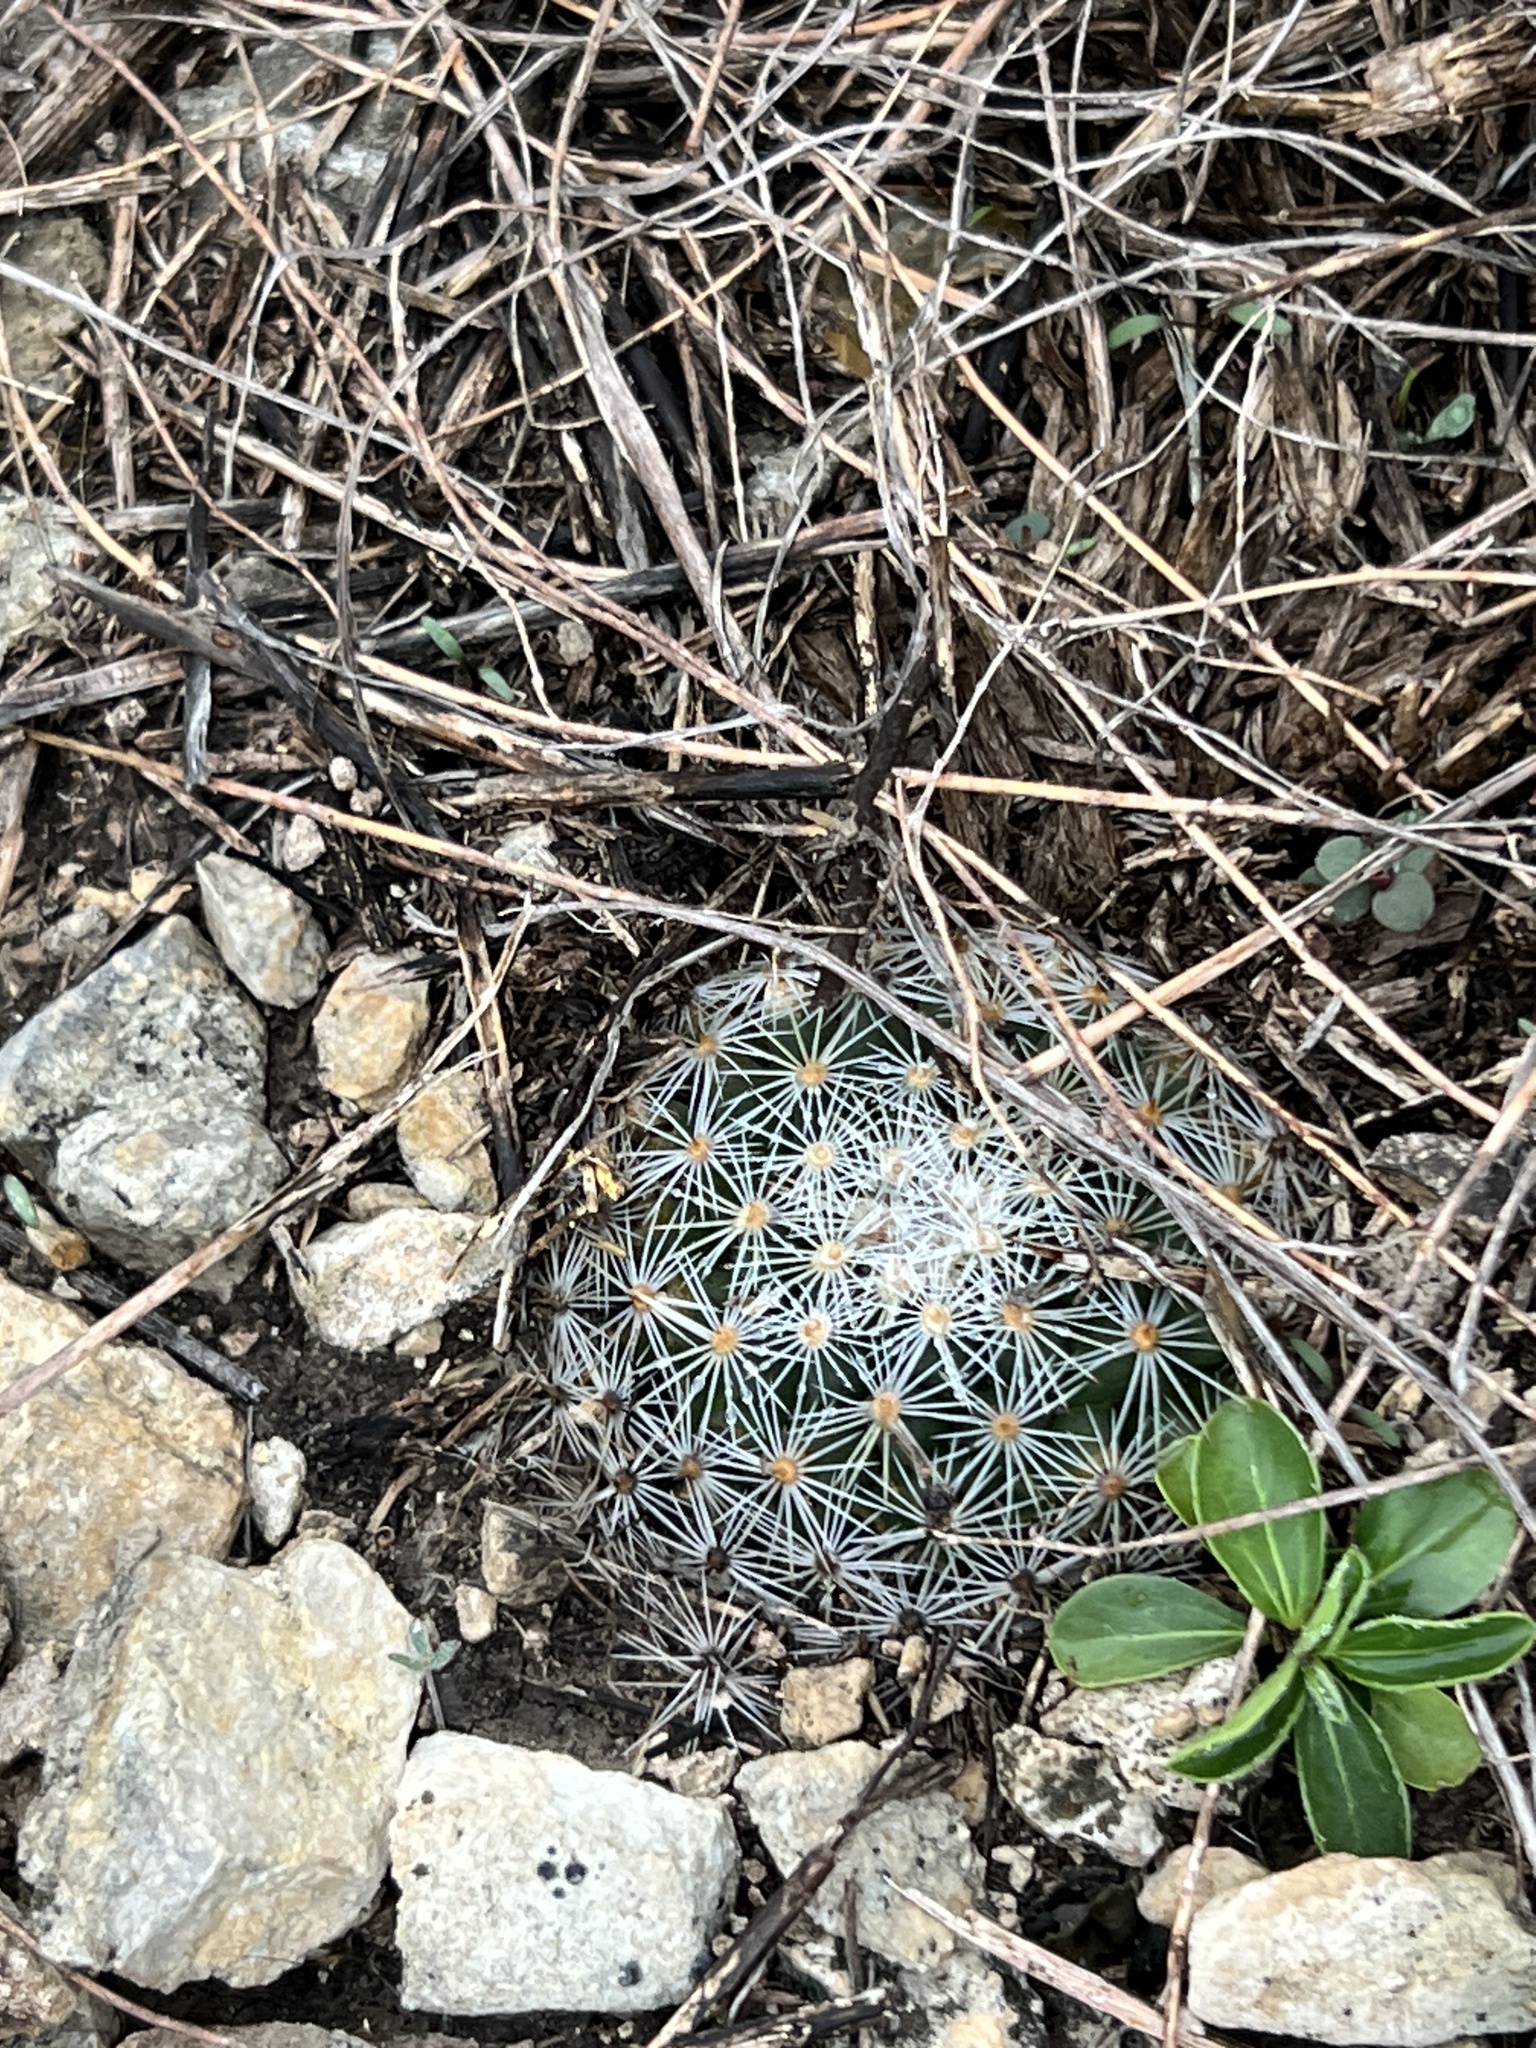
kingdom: Plantae
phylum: Tracheophyta
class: Magnoliopsida
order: Caryophyllales
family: Cactaceae
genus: Mammillaria
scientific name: Mammillaria heyderi
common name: Little nipple cactus
